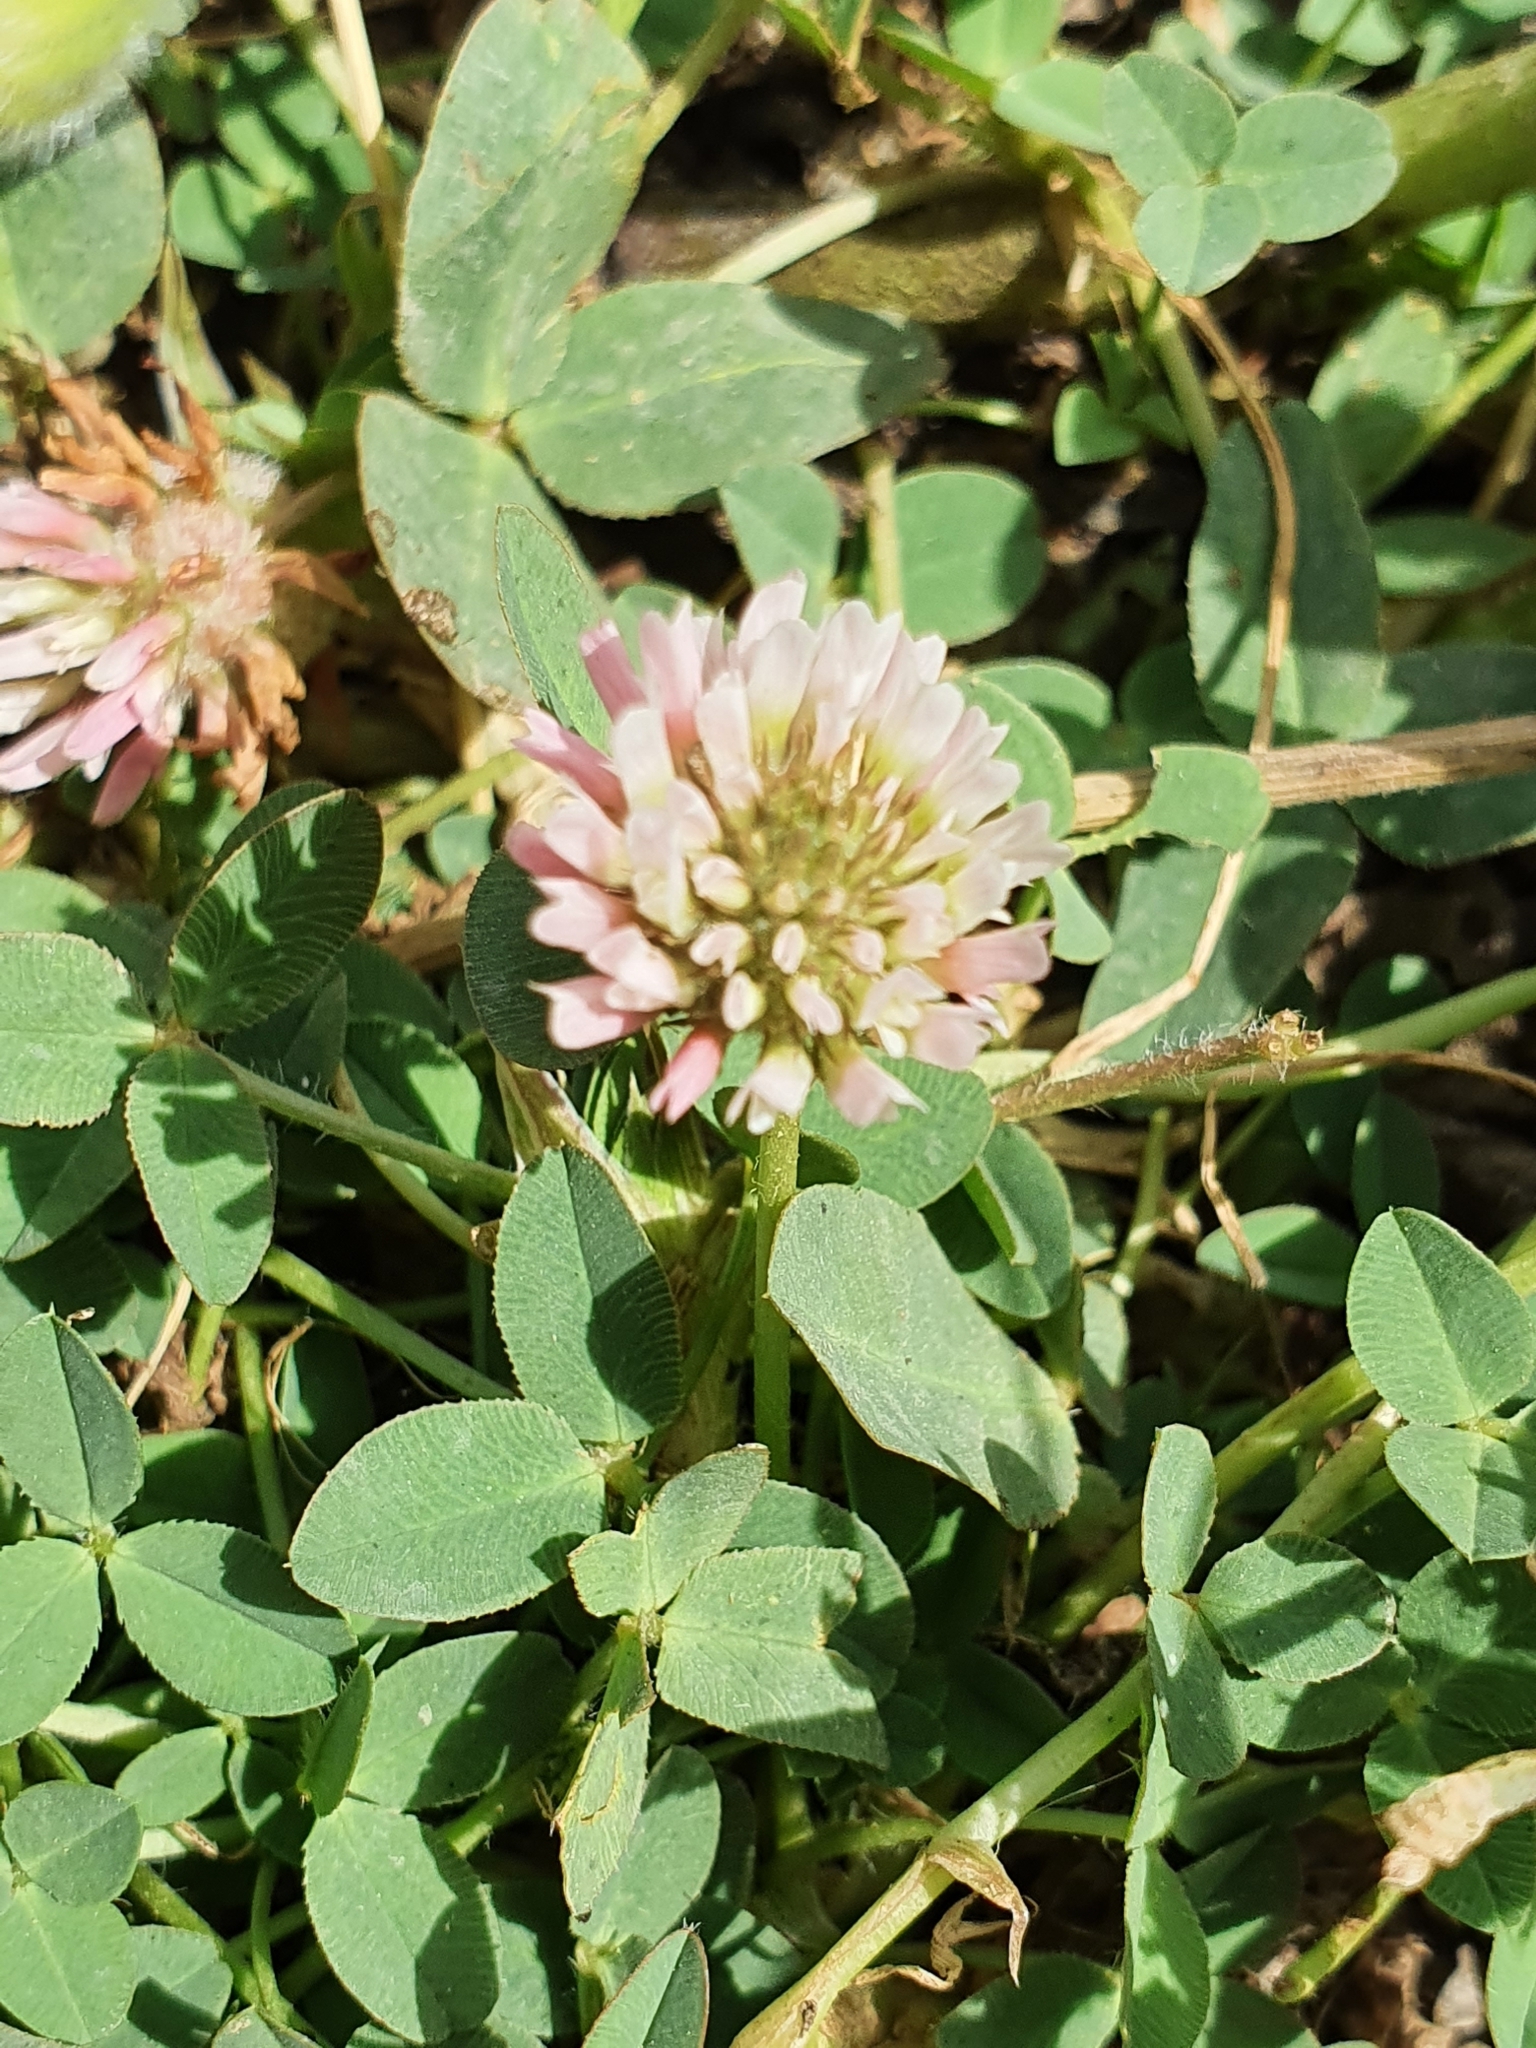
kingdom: Plantae
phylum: Tracheophyta
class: Magnoliopsida
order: Fabales
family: Fabaceae
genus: Trifolium
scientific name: Trifolium fragiferum
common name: Strawberry clover
